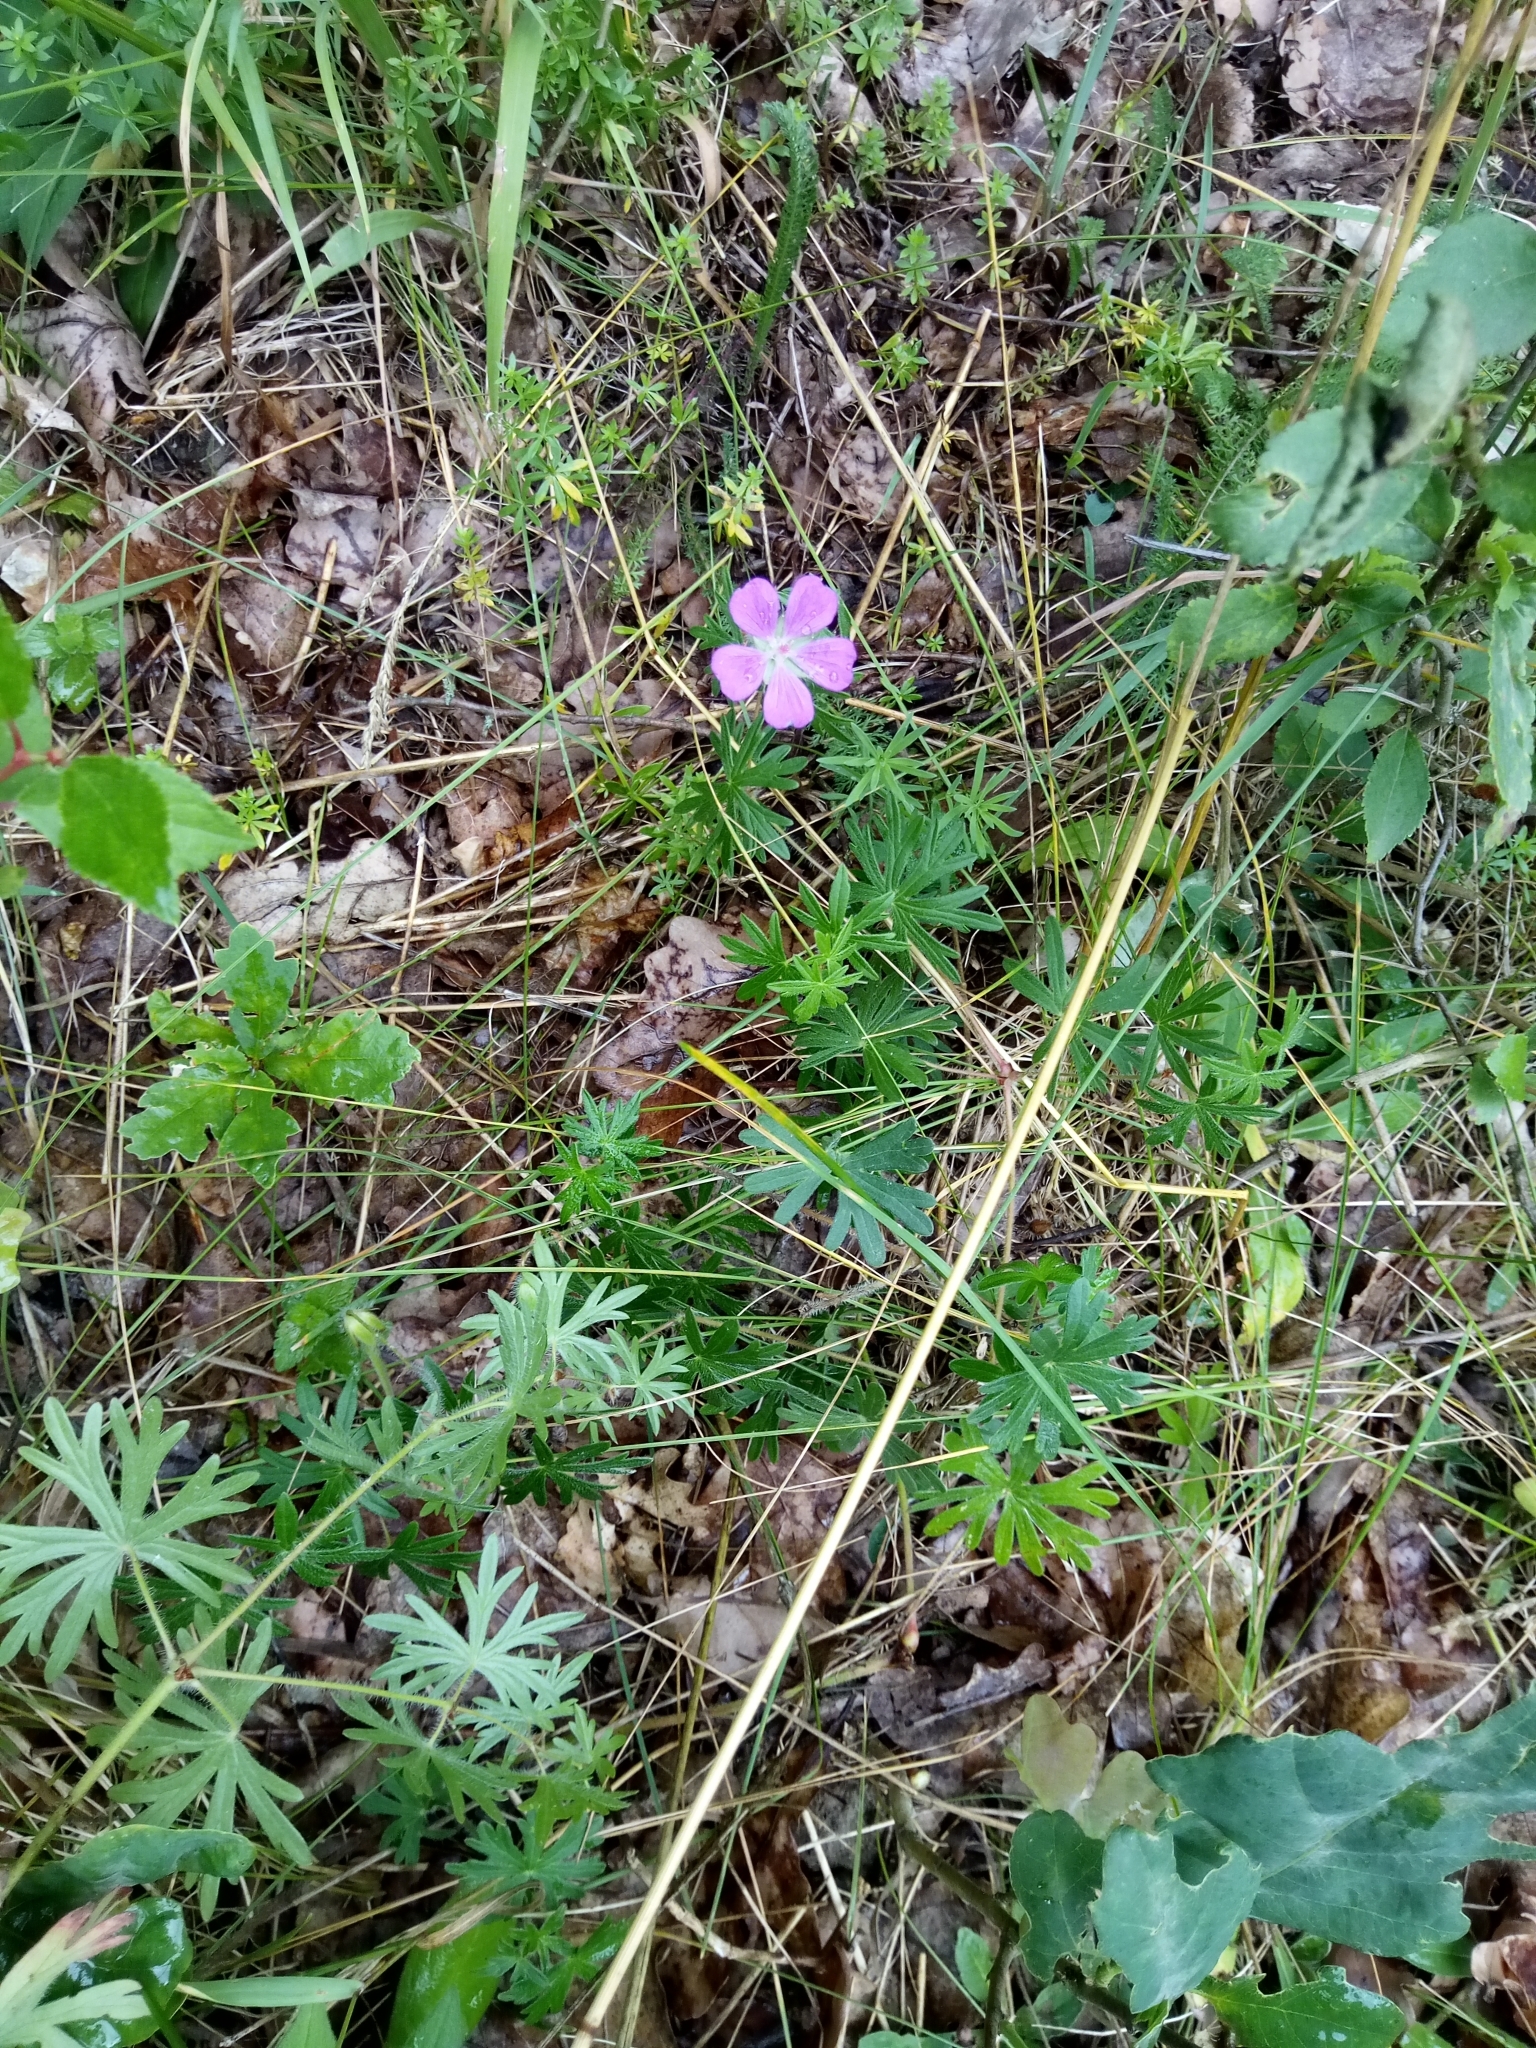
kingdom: Plantae
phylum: Tracheophyta
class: Magnoliopsida
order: Geraniales
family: Geraniaceae
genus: Geranium
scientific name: Geranium sanguineum
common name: Bloody crane's-bill
